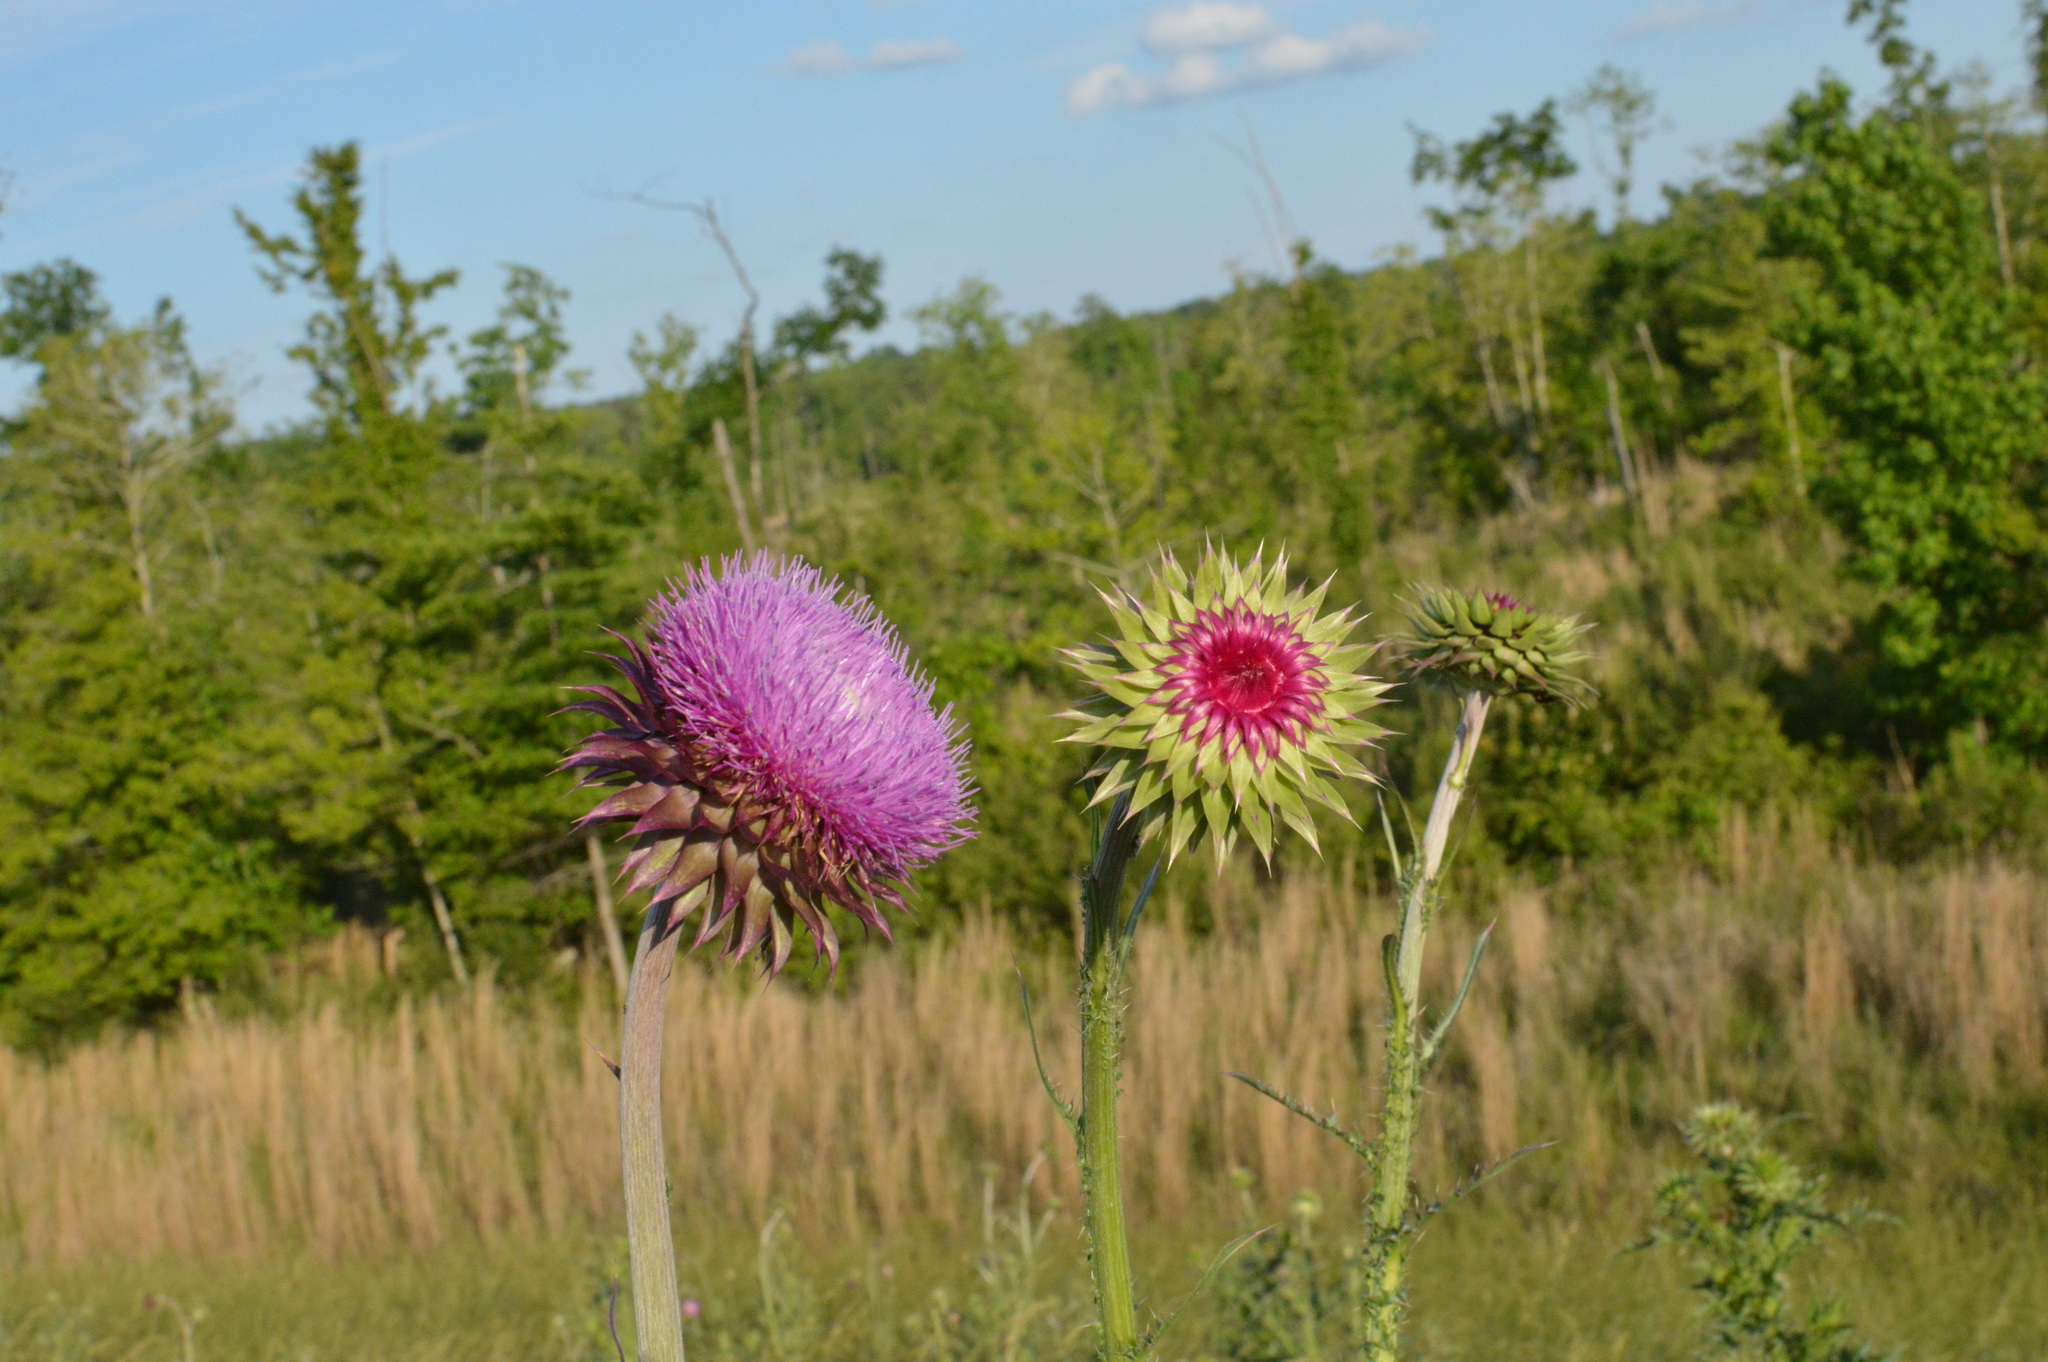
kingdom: Plantae
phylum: Tracheophyta
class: Magnoliopsida
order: Asterales
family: Asteraceae
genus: Carduus
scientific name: Carduus nutans
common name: Musk thistle
